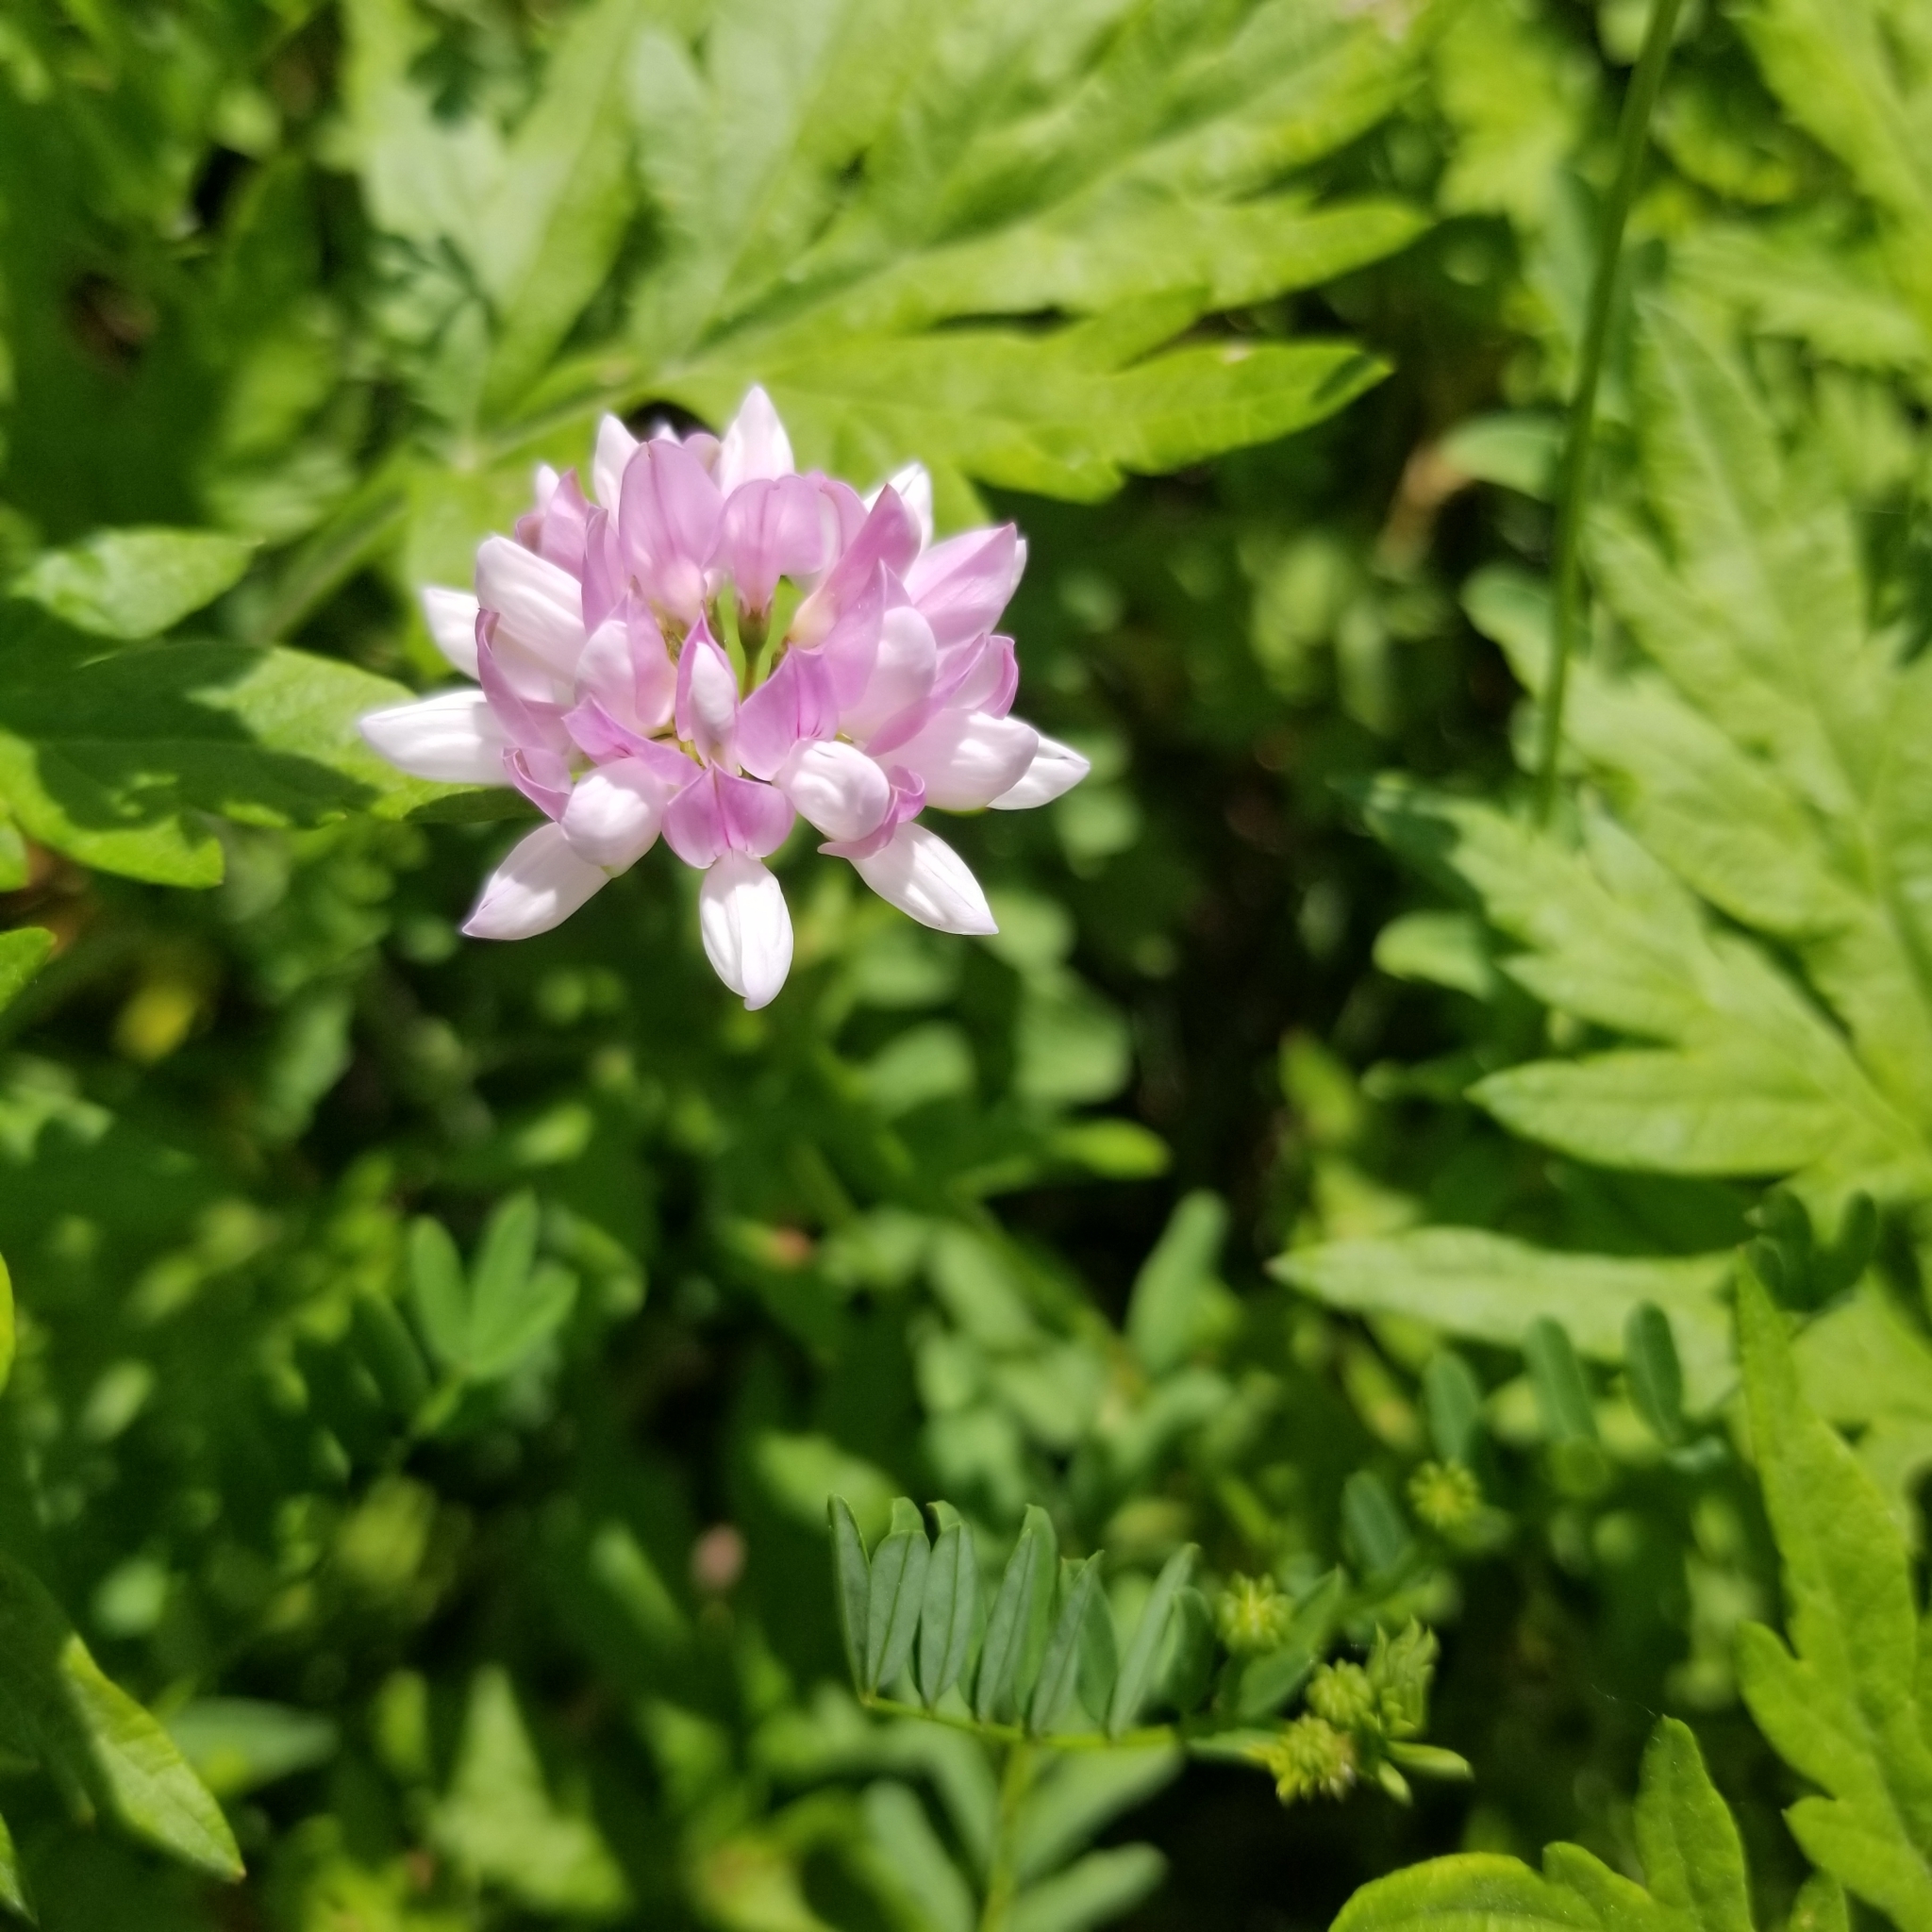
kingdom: Plantae
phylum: Tracheophyta
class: Magnoliopsida
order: Fabales
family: Fabaceae
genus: Coronilla
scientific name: Coronilla varia
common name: Crownvetch
